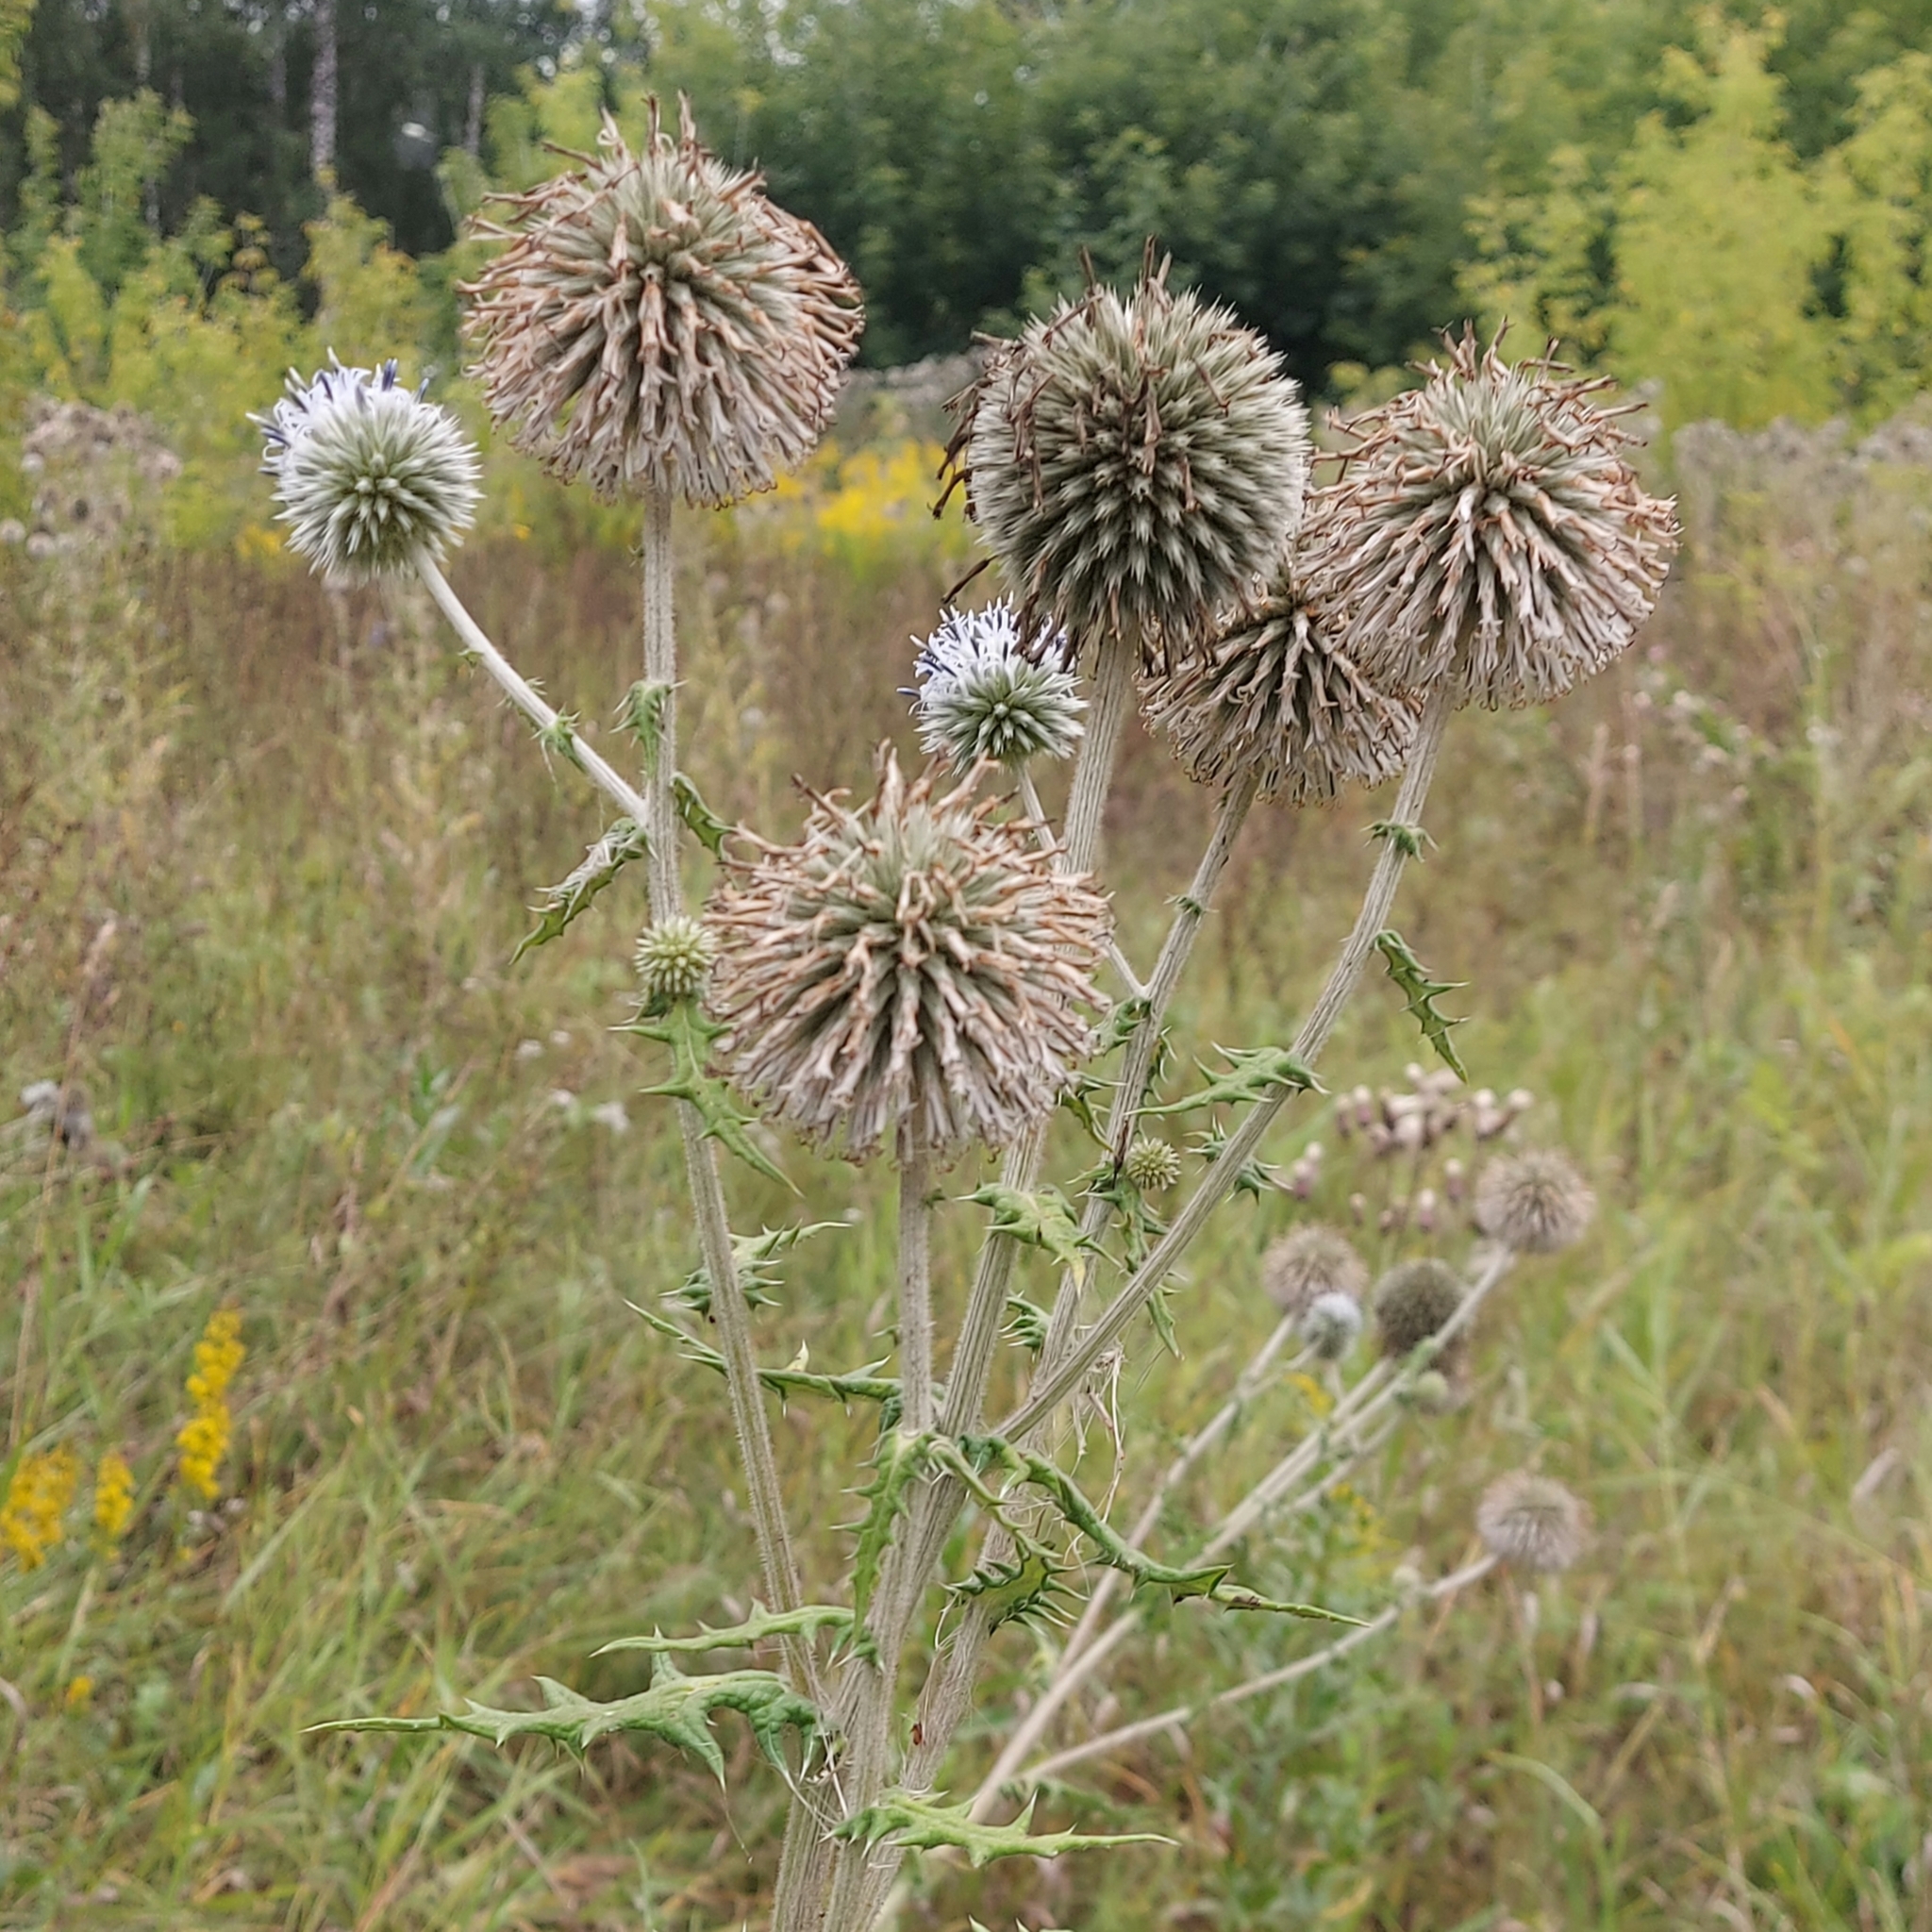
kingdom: Plantae
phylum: Tracheophyta
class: Magnoliopsida
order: Asterales
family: Asteraceae
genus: Echinops
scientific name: Echinops sphaerocephalus
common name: Glandular globe-thistle
